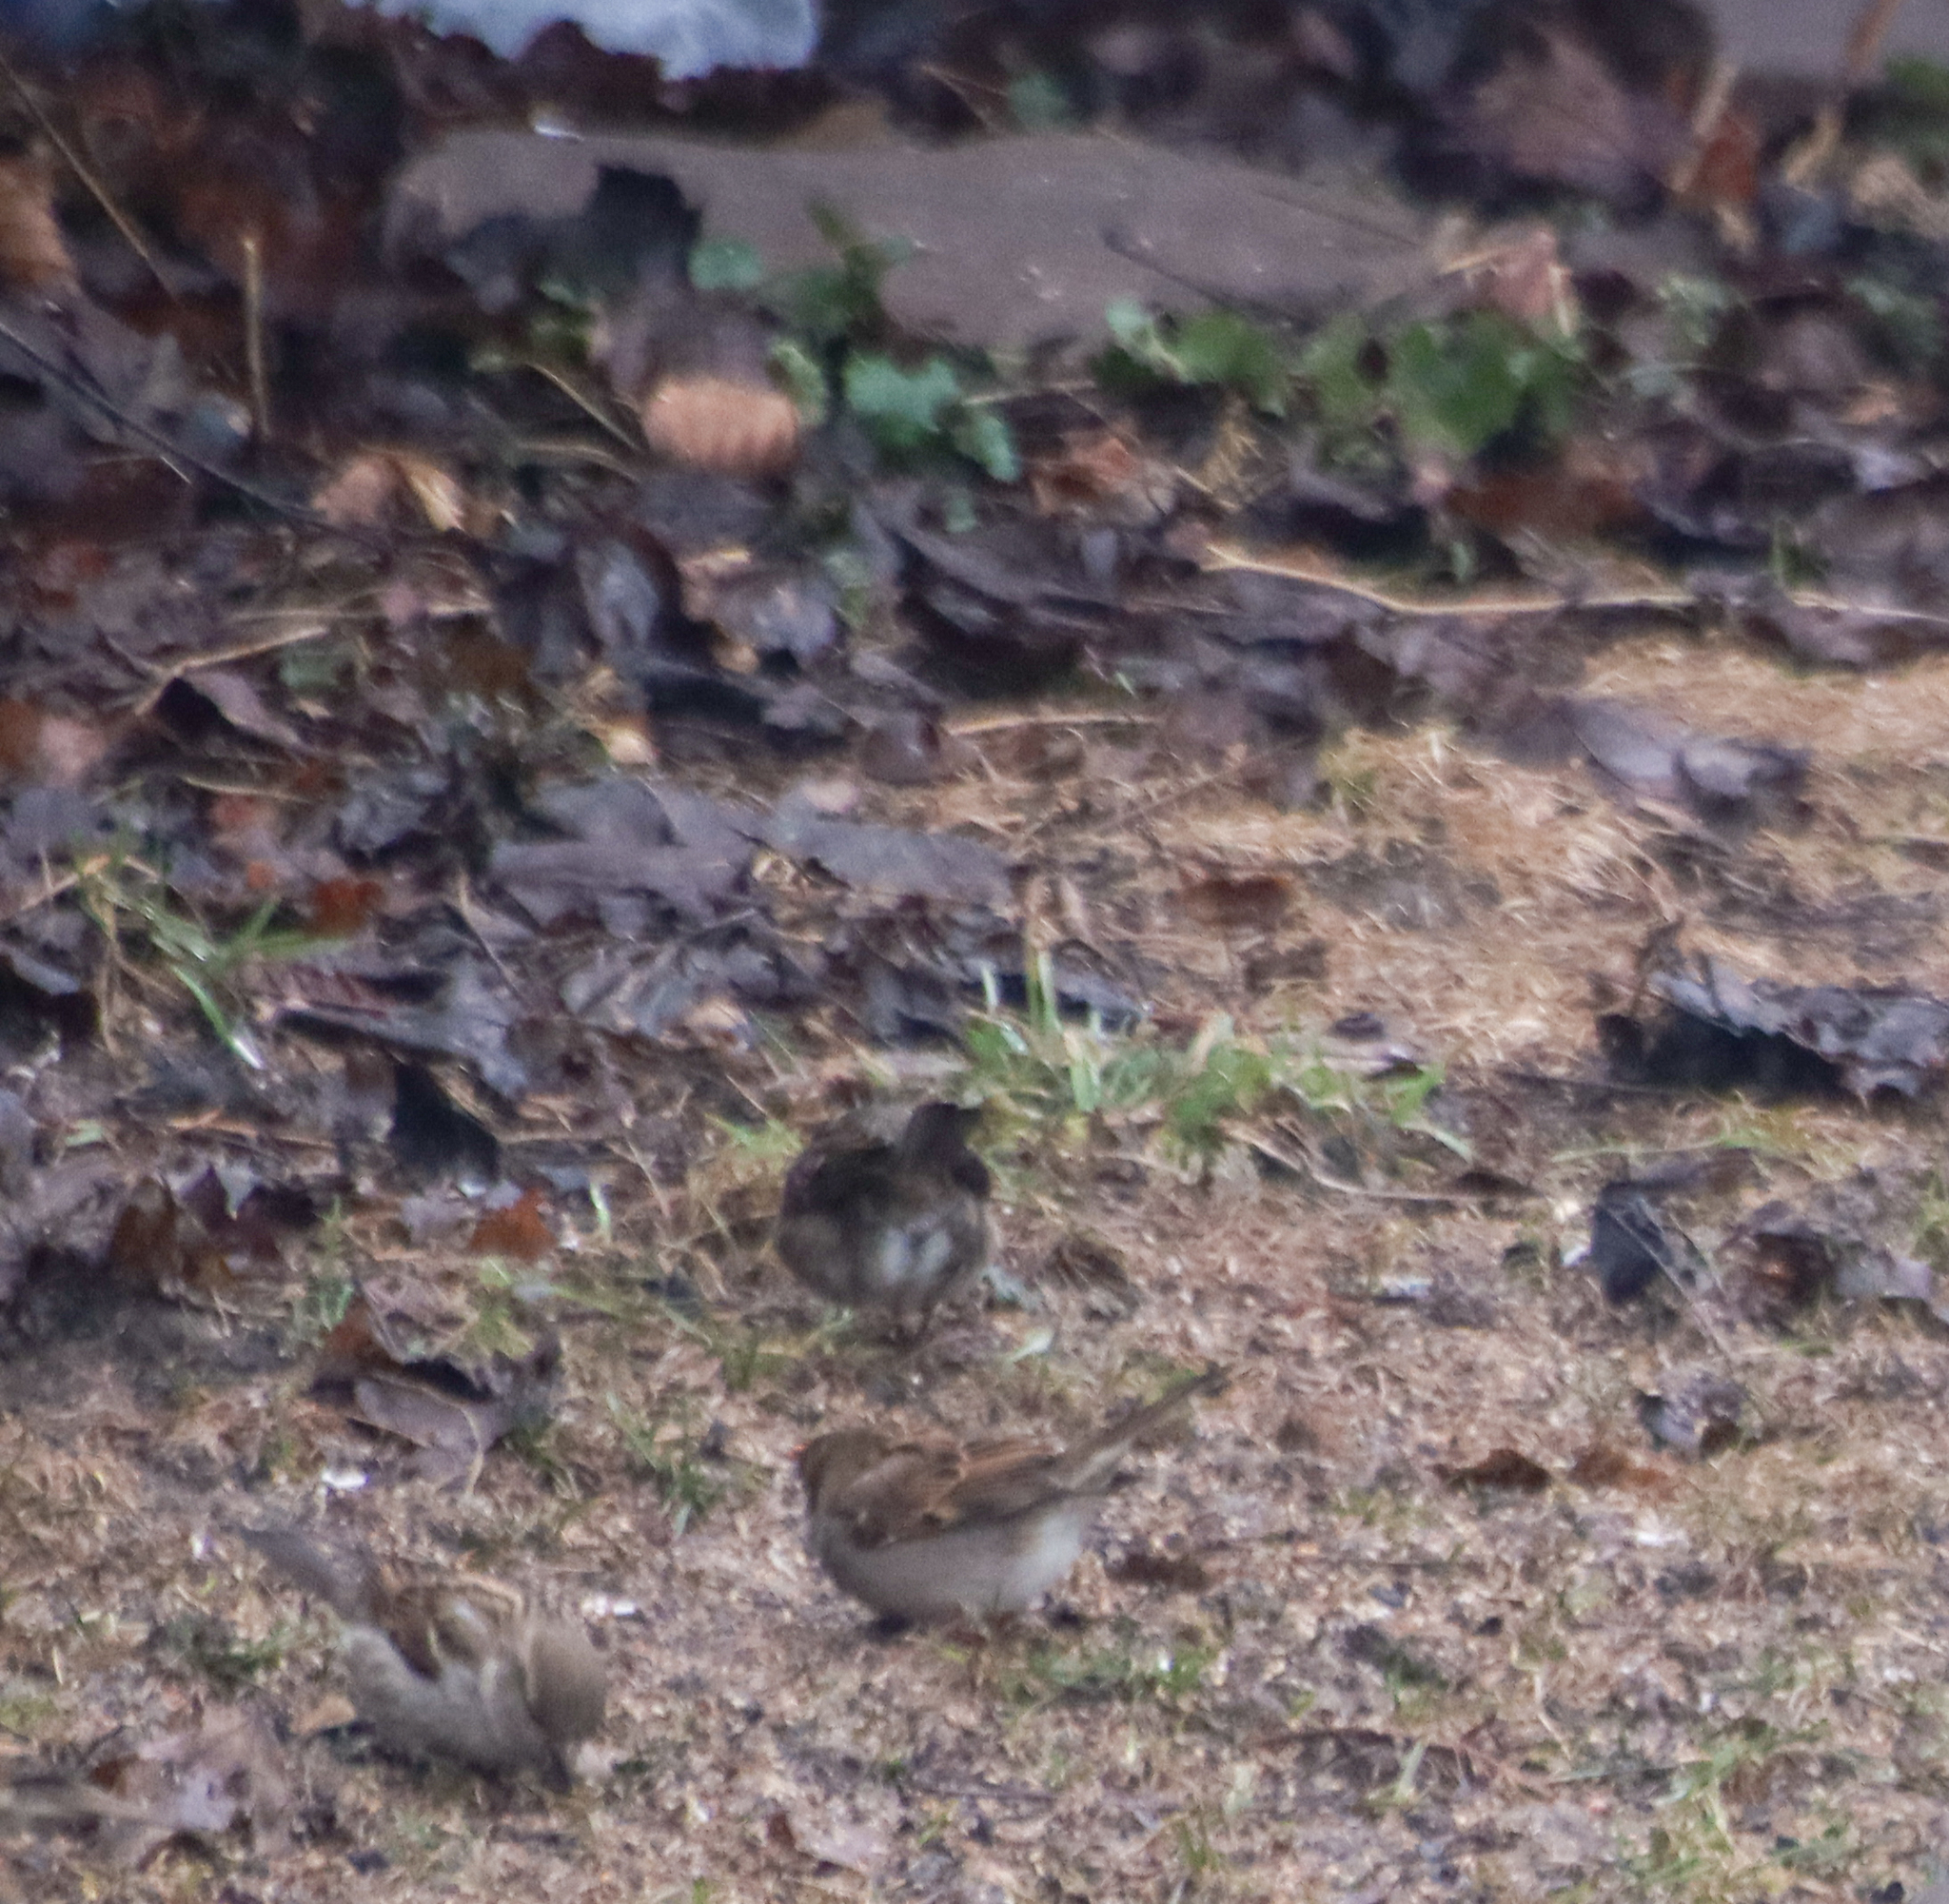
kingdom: Animalia
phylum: Chordata
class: Aves
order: Passeriformes
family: Passeridae
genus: Passer
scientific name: Passer domesticus
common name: House sparrow
